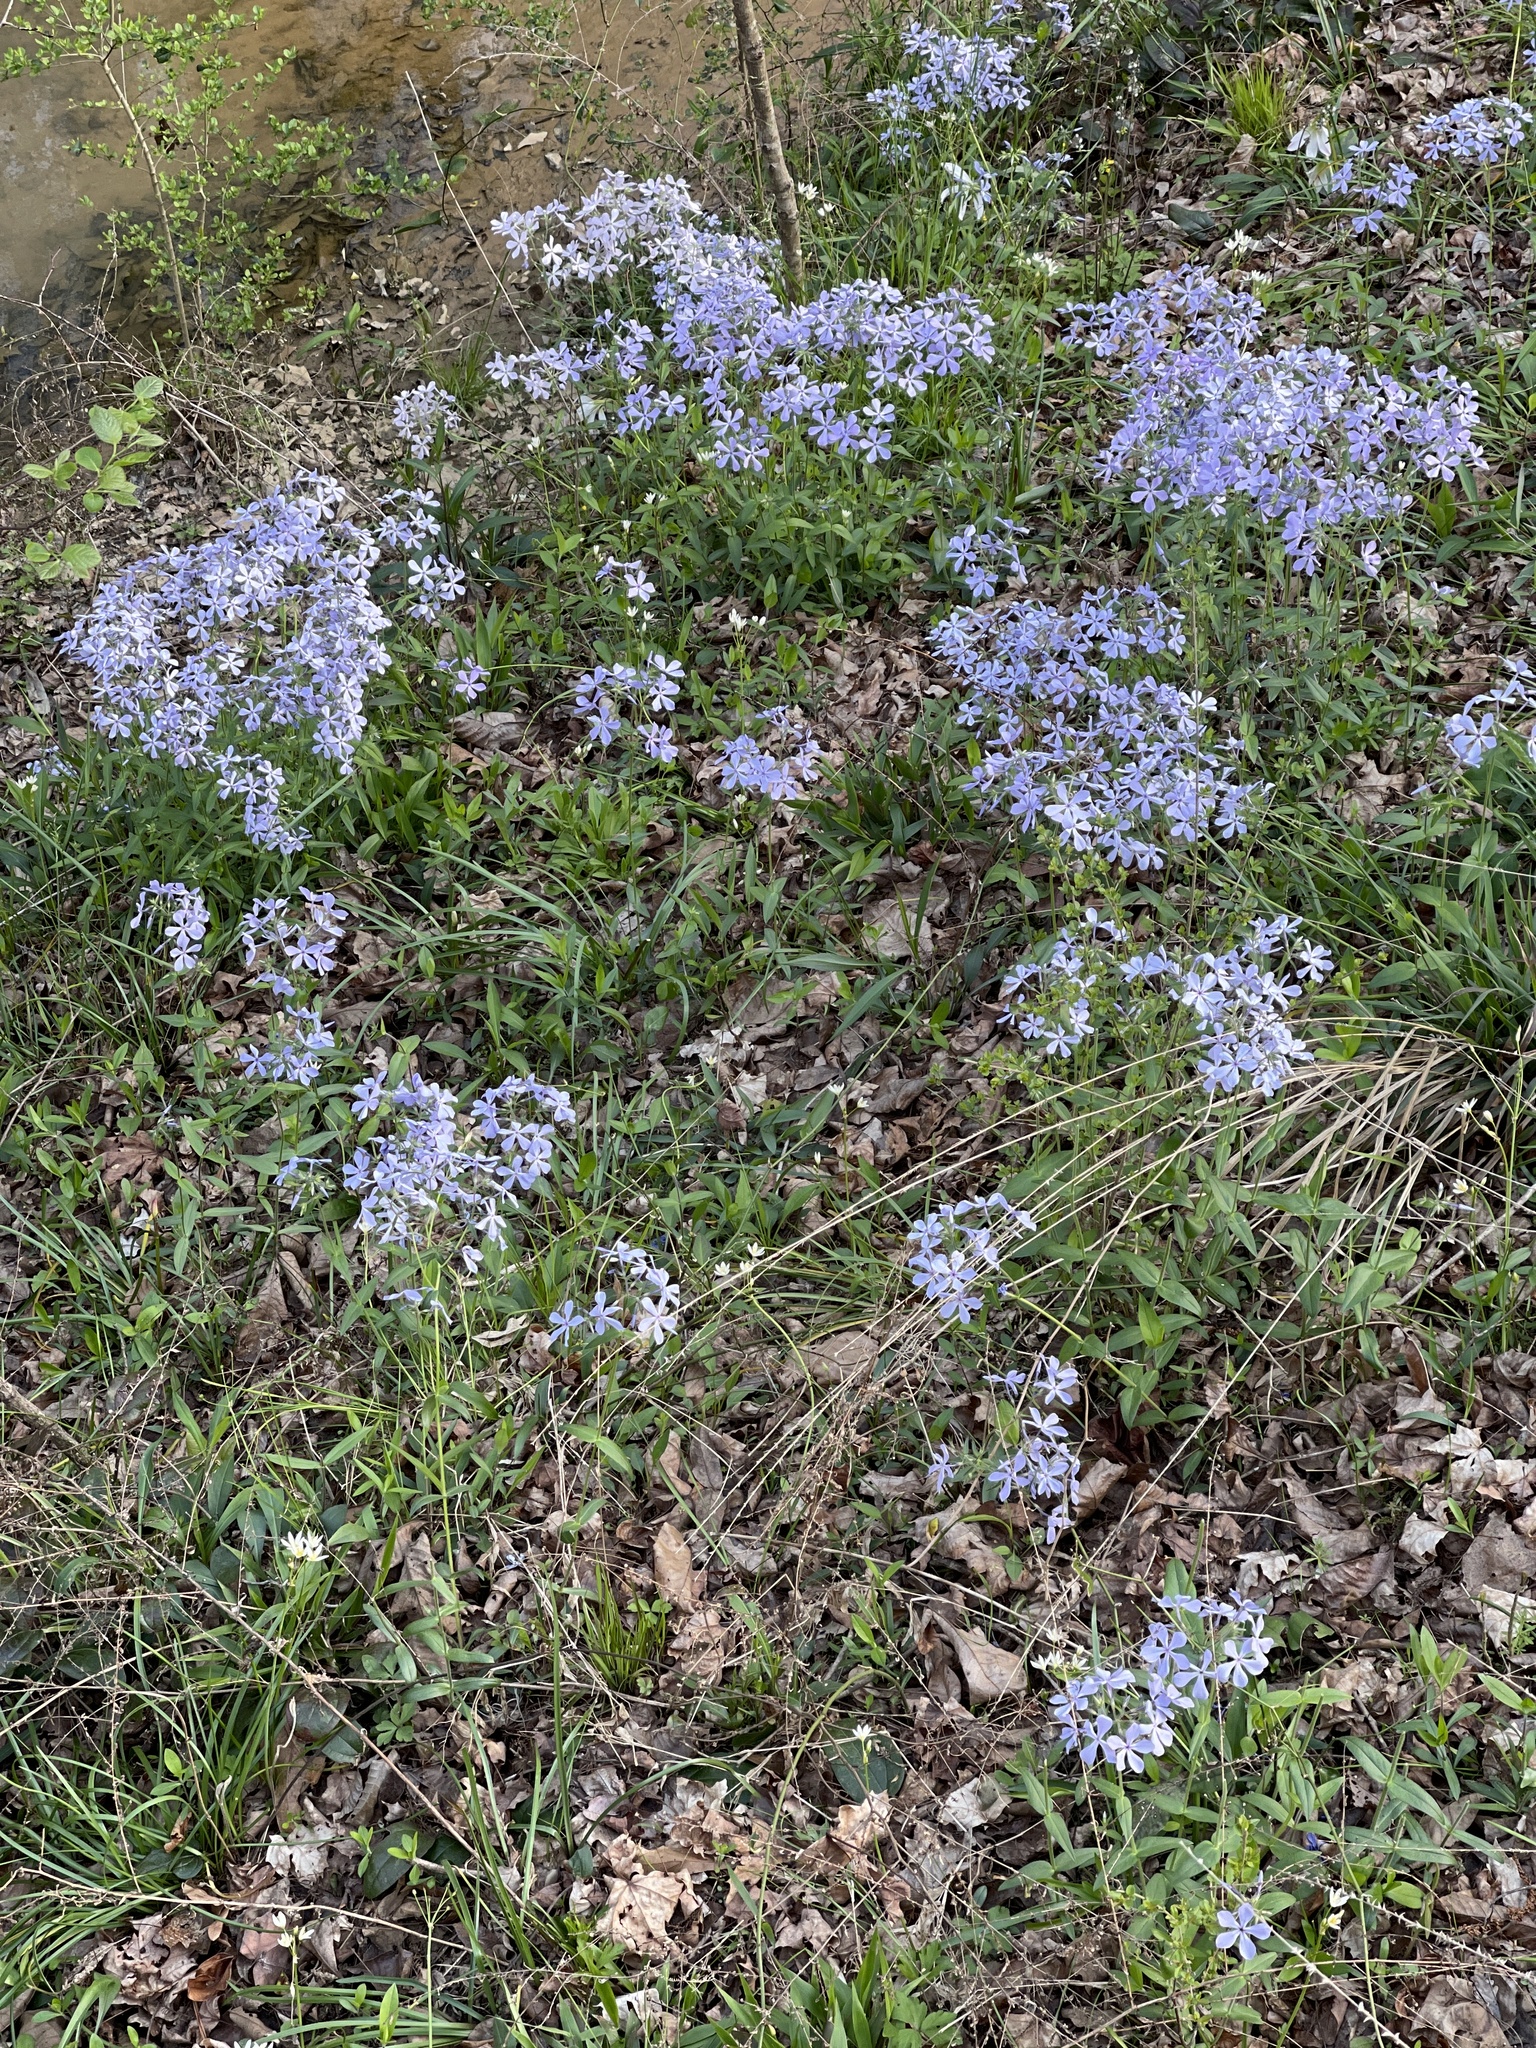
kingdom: Plantae
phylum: Tracheophyta
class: Magnoliopsida
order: Ericales
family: Polemoniaceae
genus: Phlox
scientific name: Phlox divaricata
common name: Blue phlox
